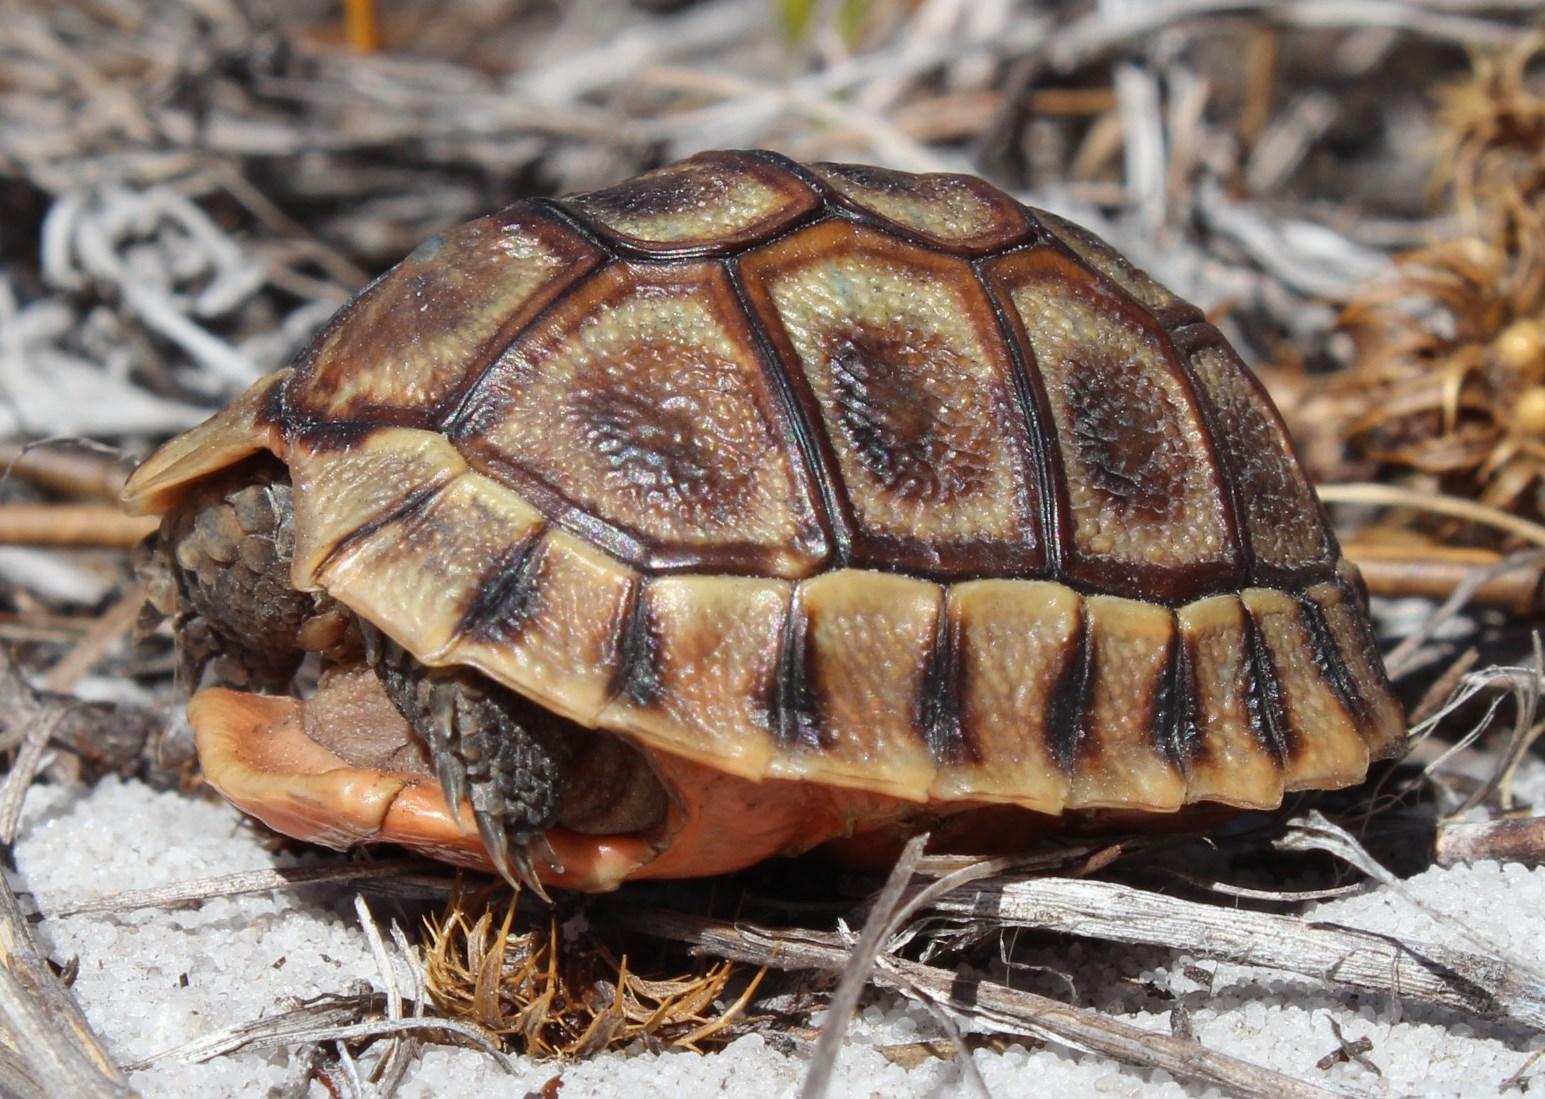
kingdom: Animalia
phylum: Chordata
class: Testudines
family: Testudinidae
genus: Chersina
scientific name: Chersina angulata
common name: South african bowsprit tortoise
